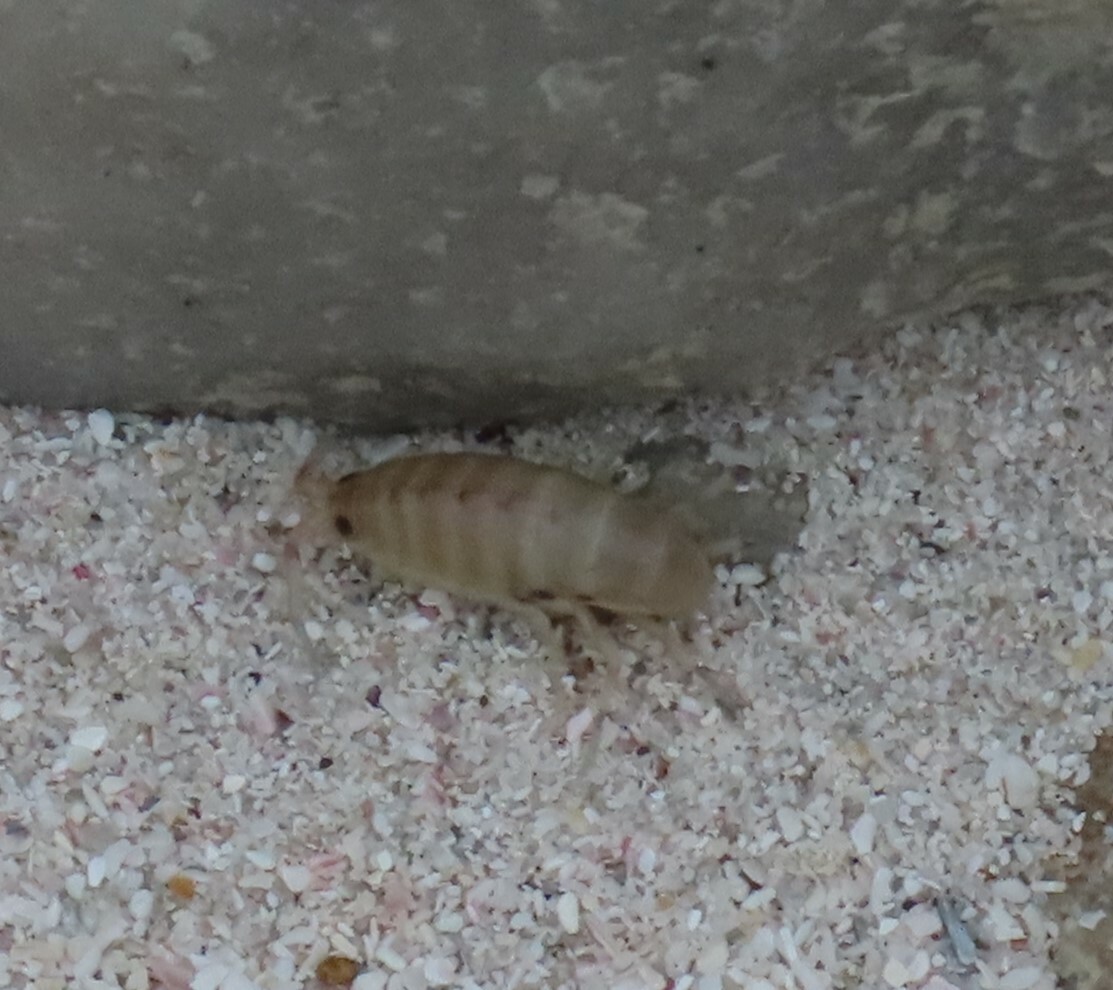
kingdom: Animalia
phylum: Arthropoda
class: Malacostraca
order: Amphipoda
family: Talitridae
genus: Capeorchestia
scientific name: Capeorchestia capensis
